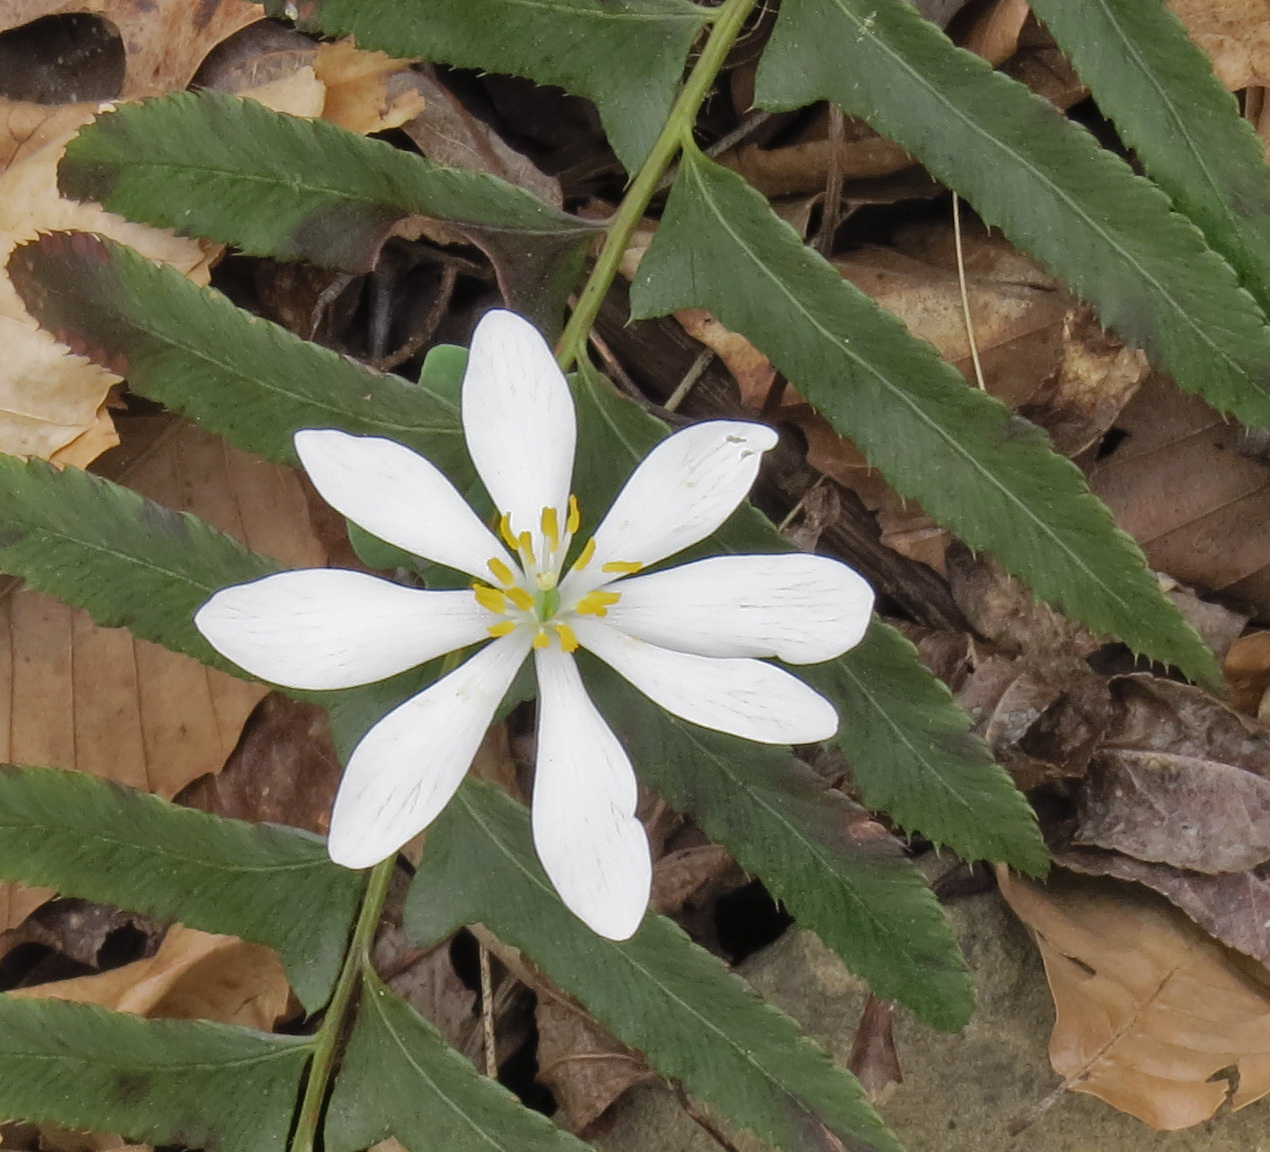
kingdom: Plantae
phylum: Tracheophyta
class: Magnoliopsida
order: Ranunculales
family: Papaveraceae
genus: Sanguinaria
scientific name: Sanguinaria canadensis
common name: Bloodroot
